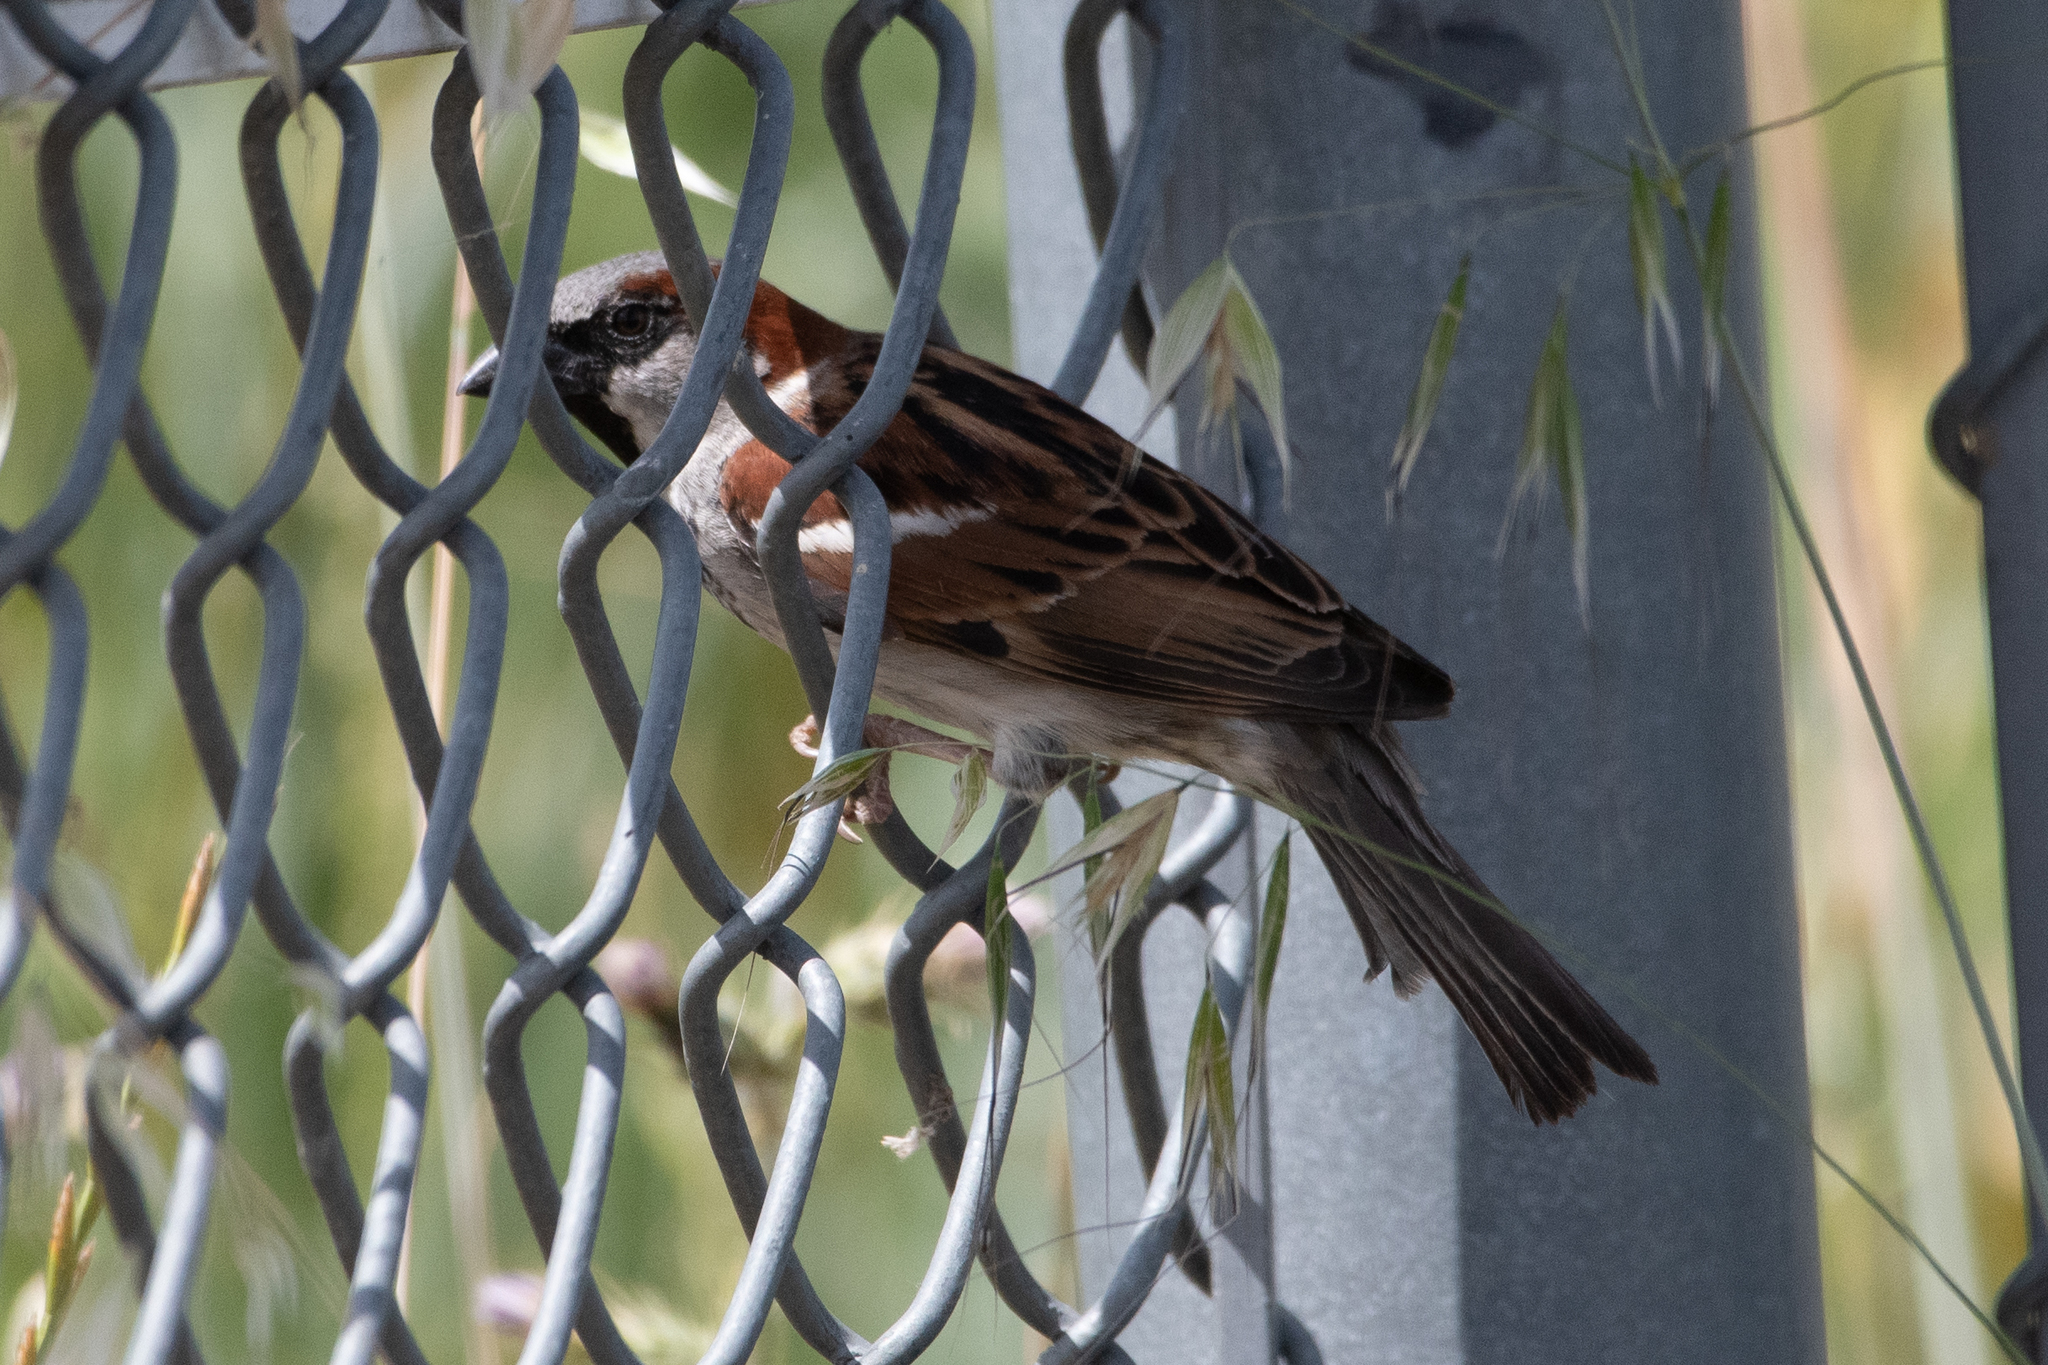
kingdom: Animalia
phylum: Chordata
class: Aves
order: Passeriformes
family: Passeridae
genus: Passer
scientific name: Passer domesticus
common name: House sparrow
